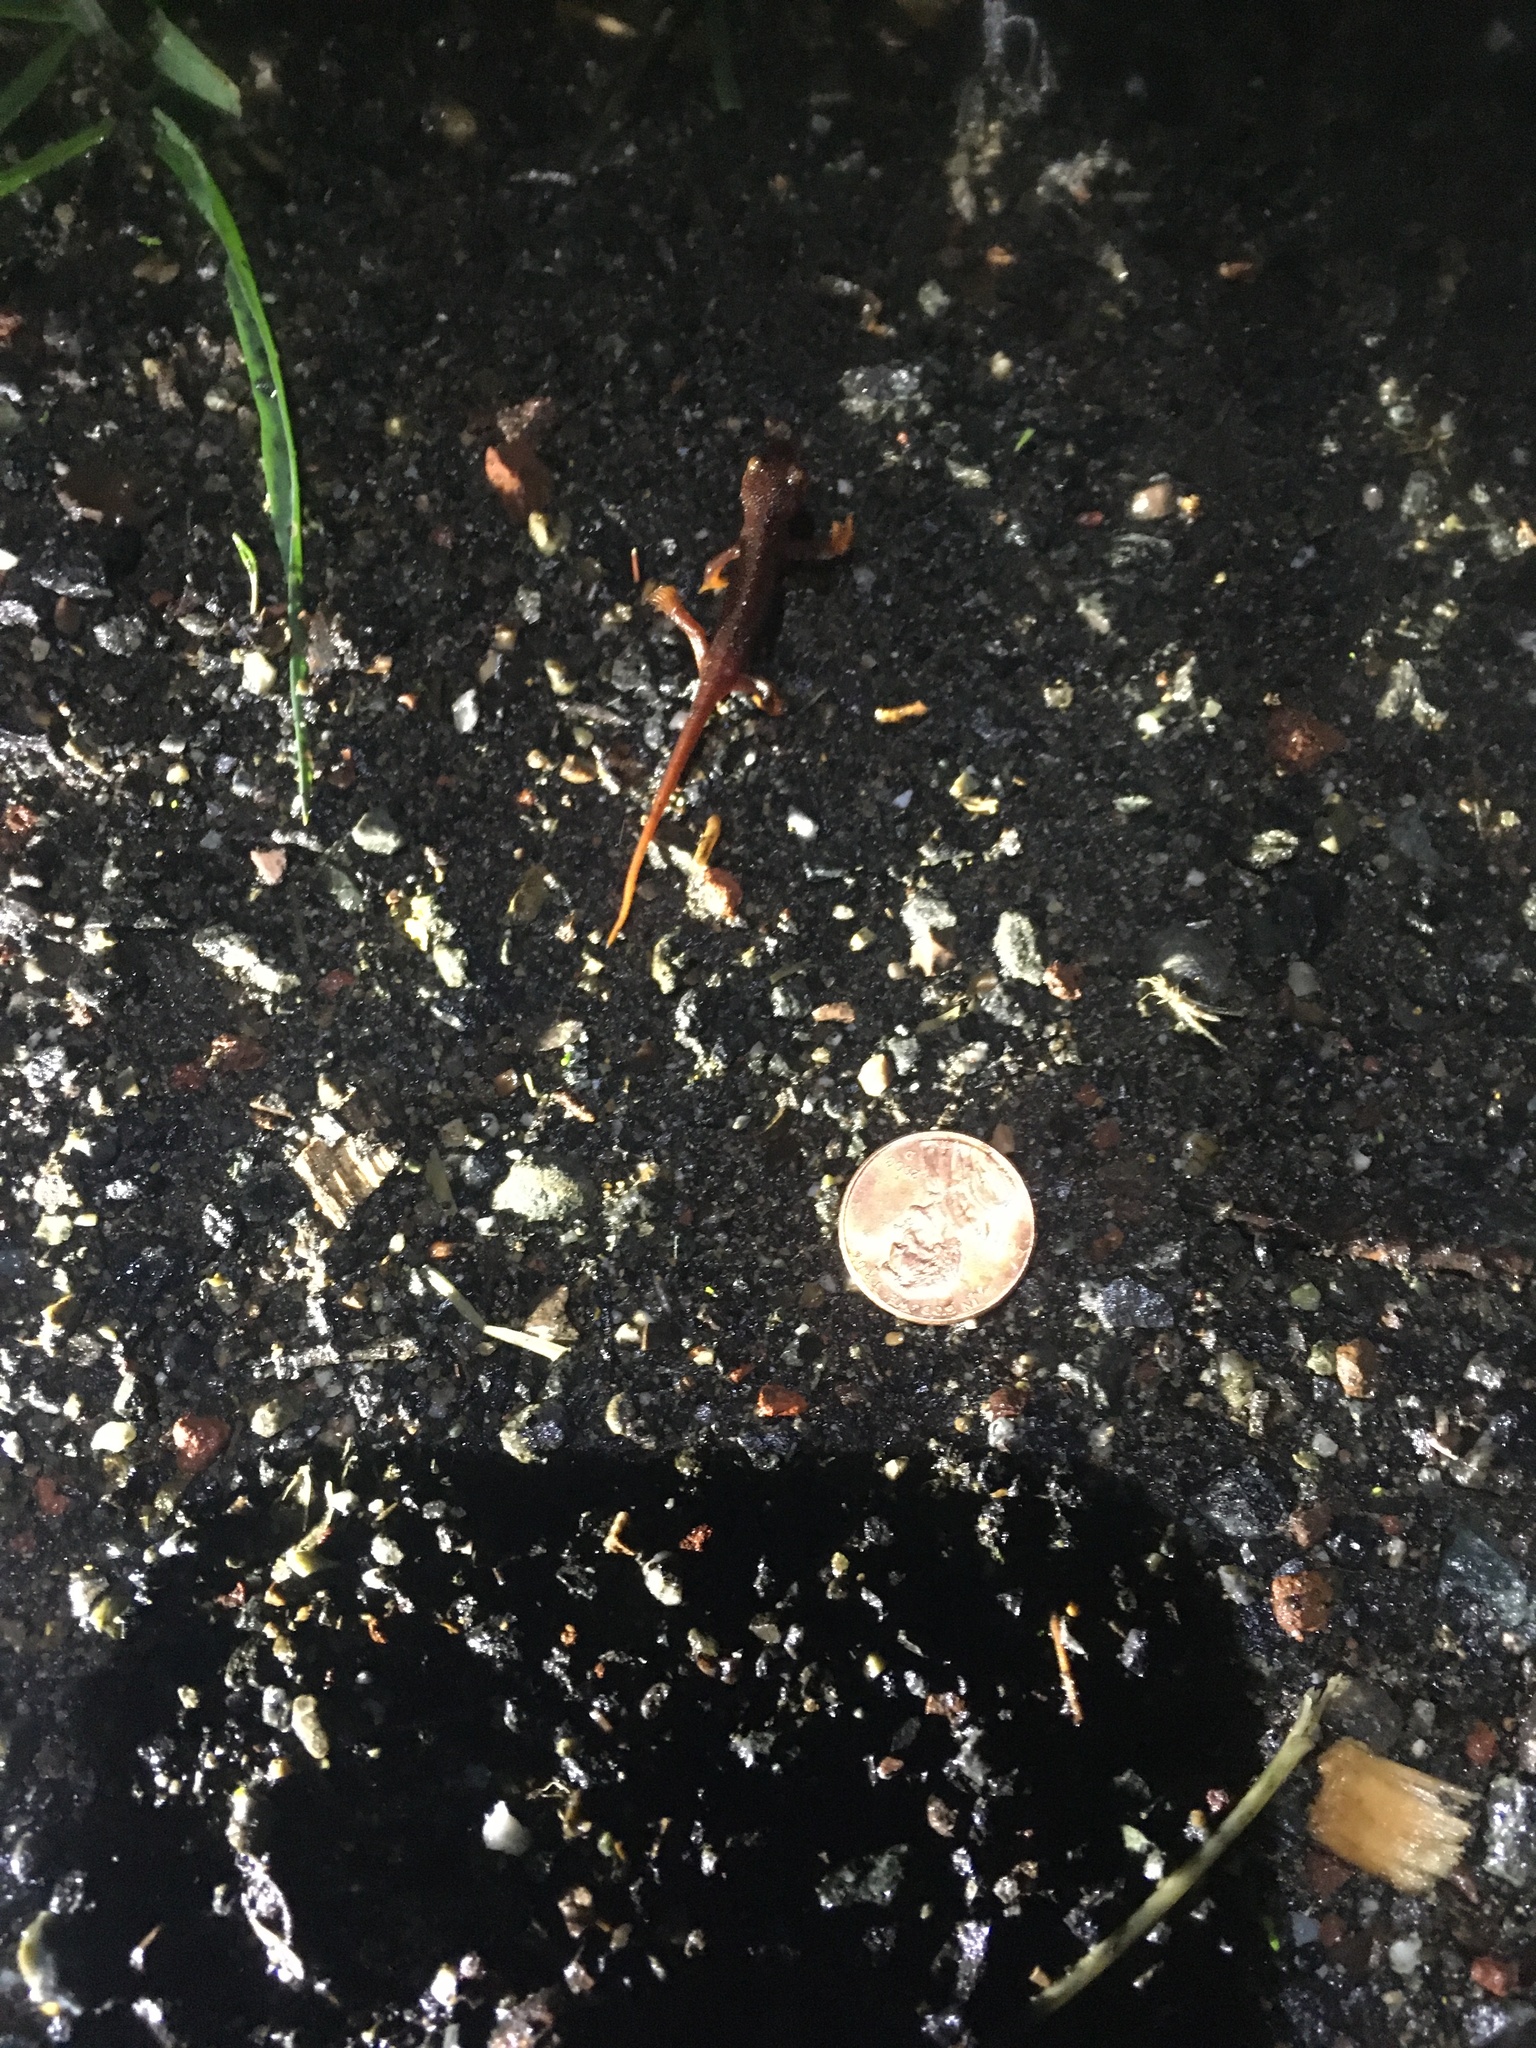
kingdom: Animalia
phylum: Chordata
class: Amphibia
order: Caudata
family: Salamandridae
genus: Taricha
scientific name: Taricha
